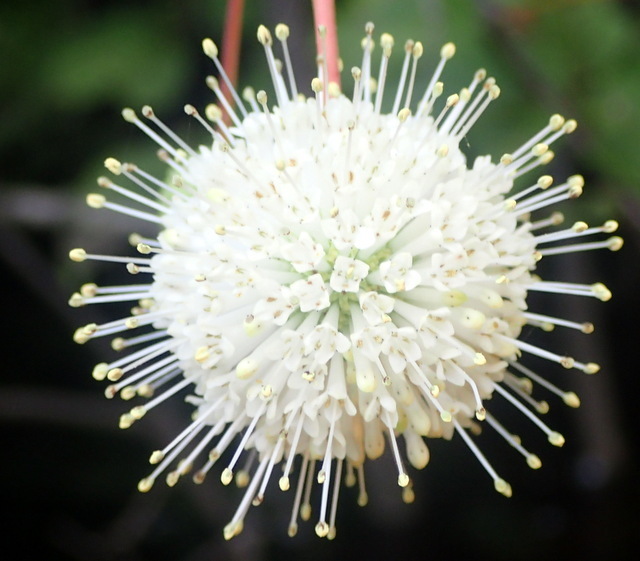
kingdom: Plantae
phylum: Tracheophyta
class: Magnoliopsida
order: Gentianales
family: Rubiaceae
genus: Cephalanthus
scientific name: Cephalanthus occidentalis
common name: Button-willow
